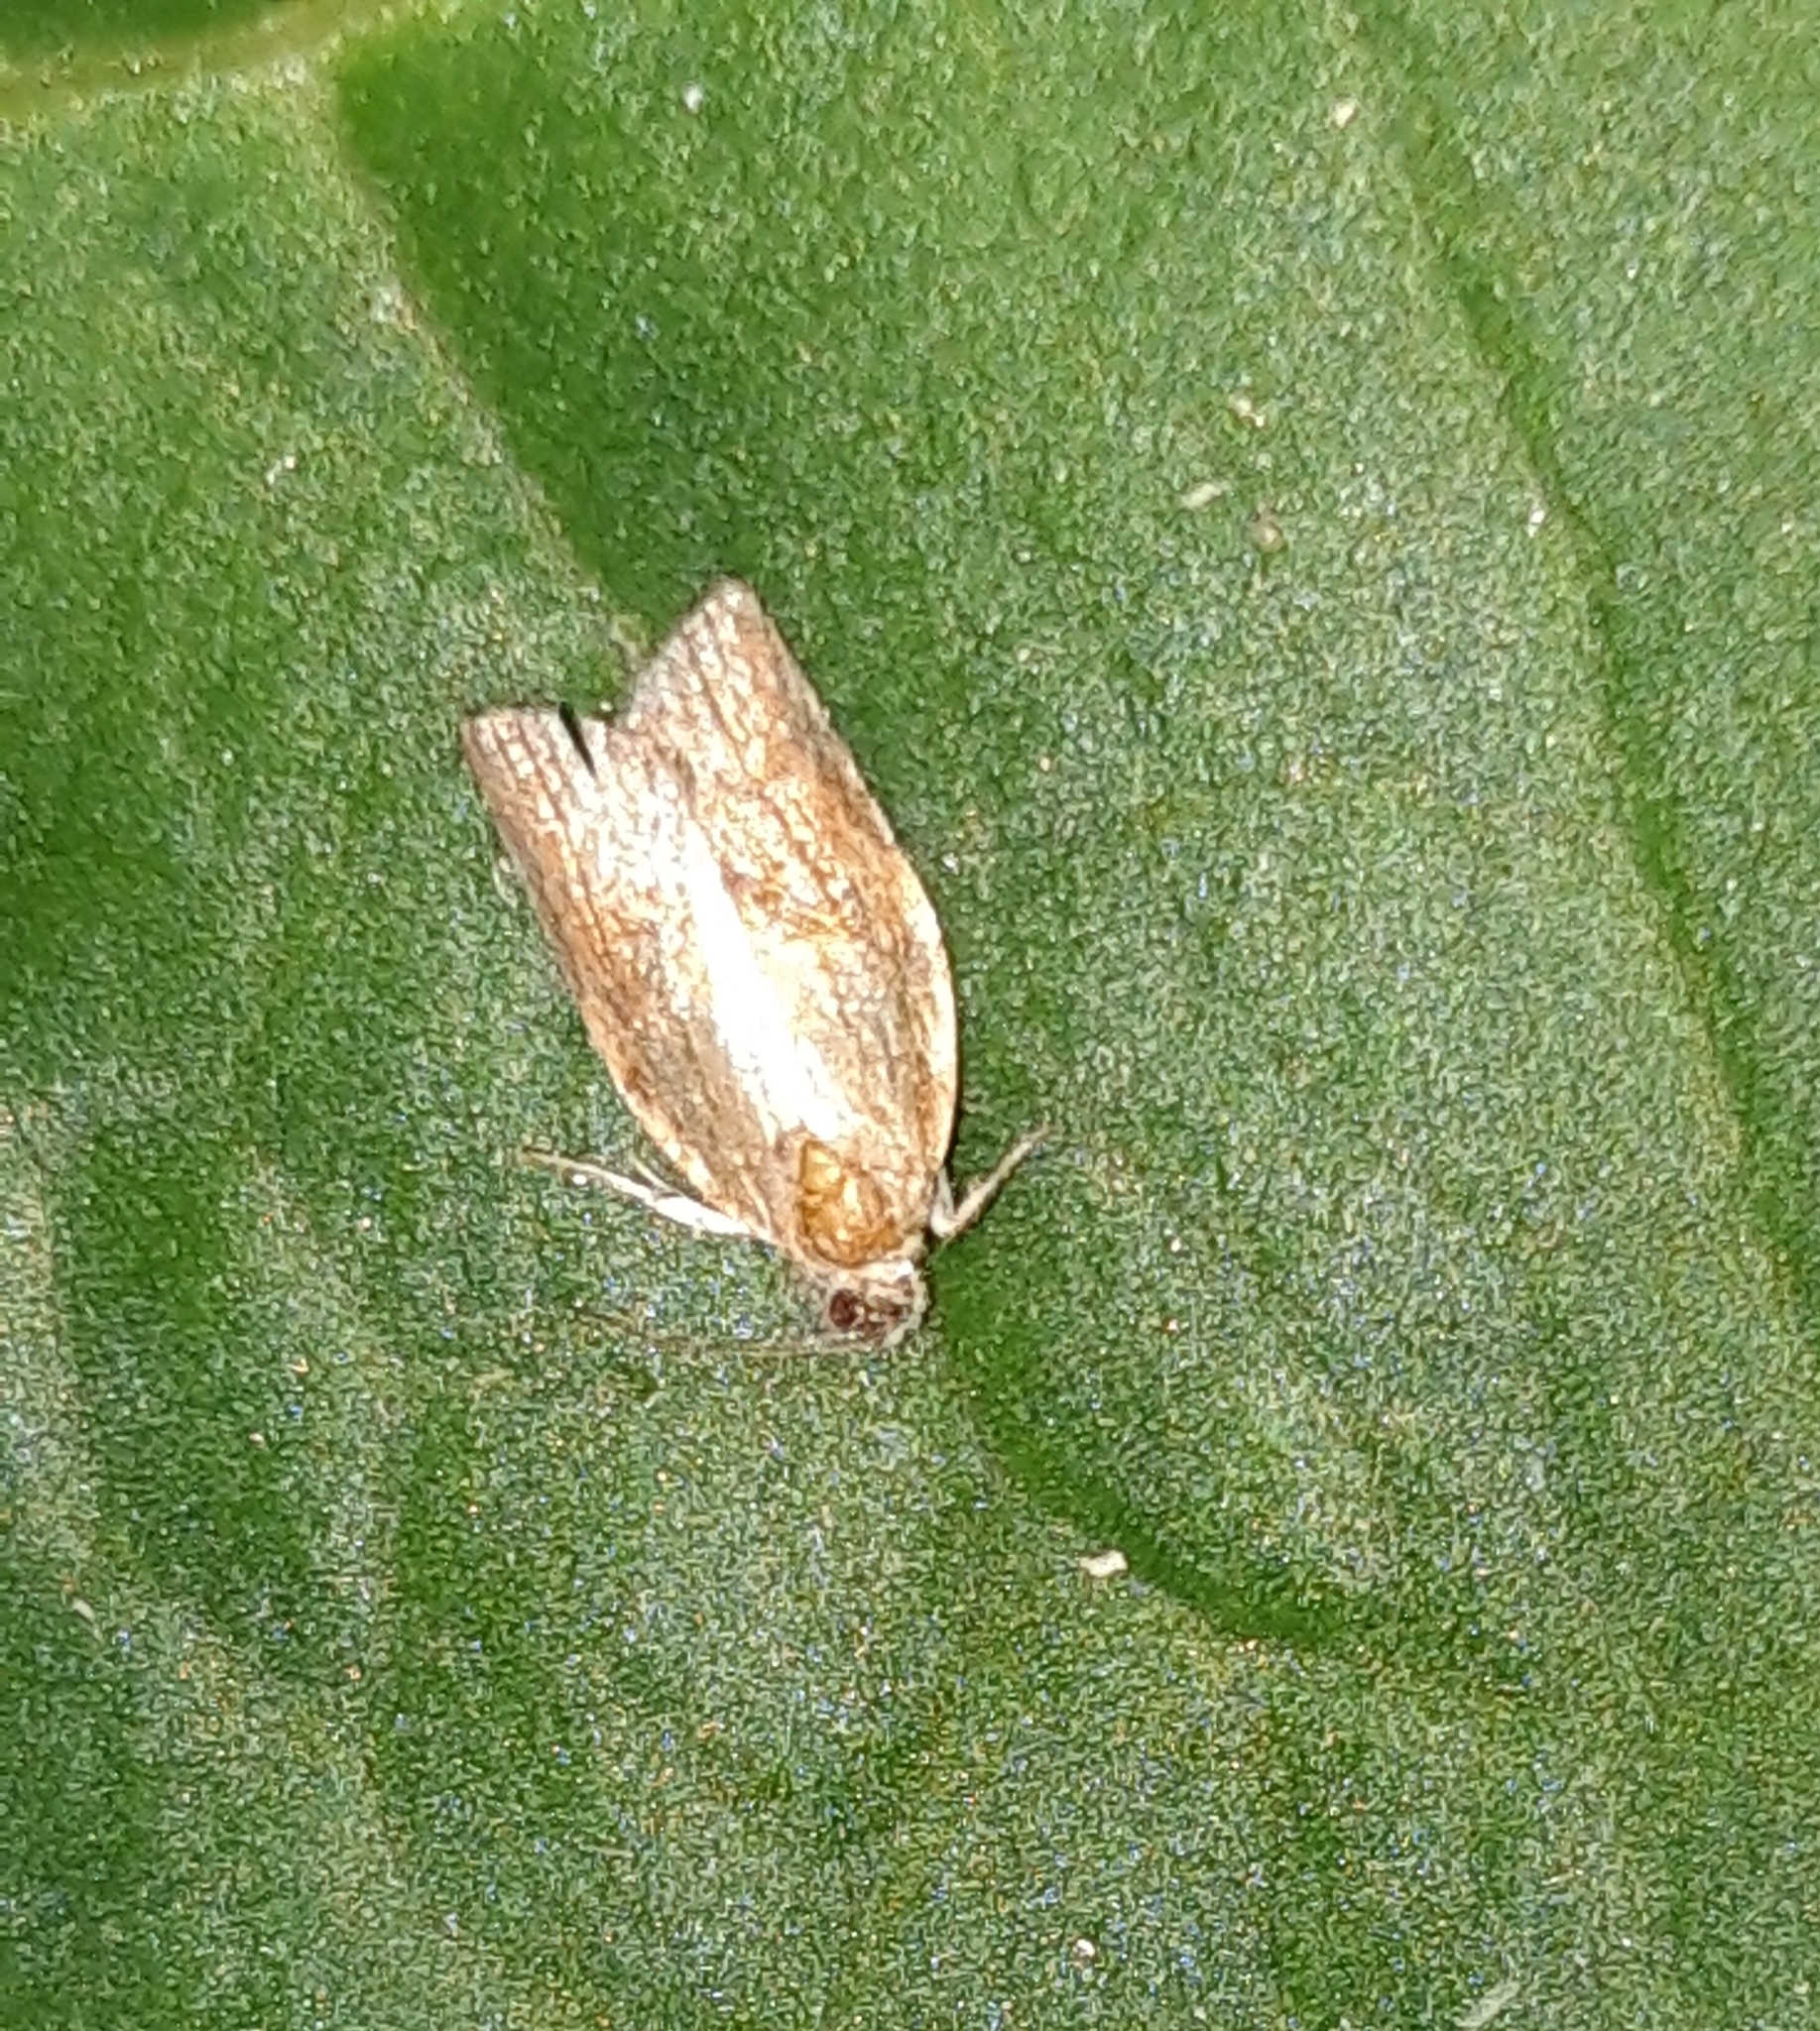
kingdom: Animalia
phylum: Arthropoda
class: Insecta
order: Lepidoptera
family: Tortricidae
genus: Epiphyas
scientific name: Epiphyas postvittana
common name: Light brown apple moth
